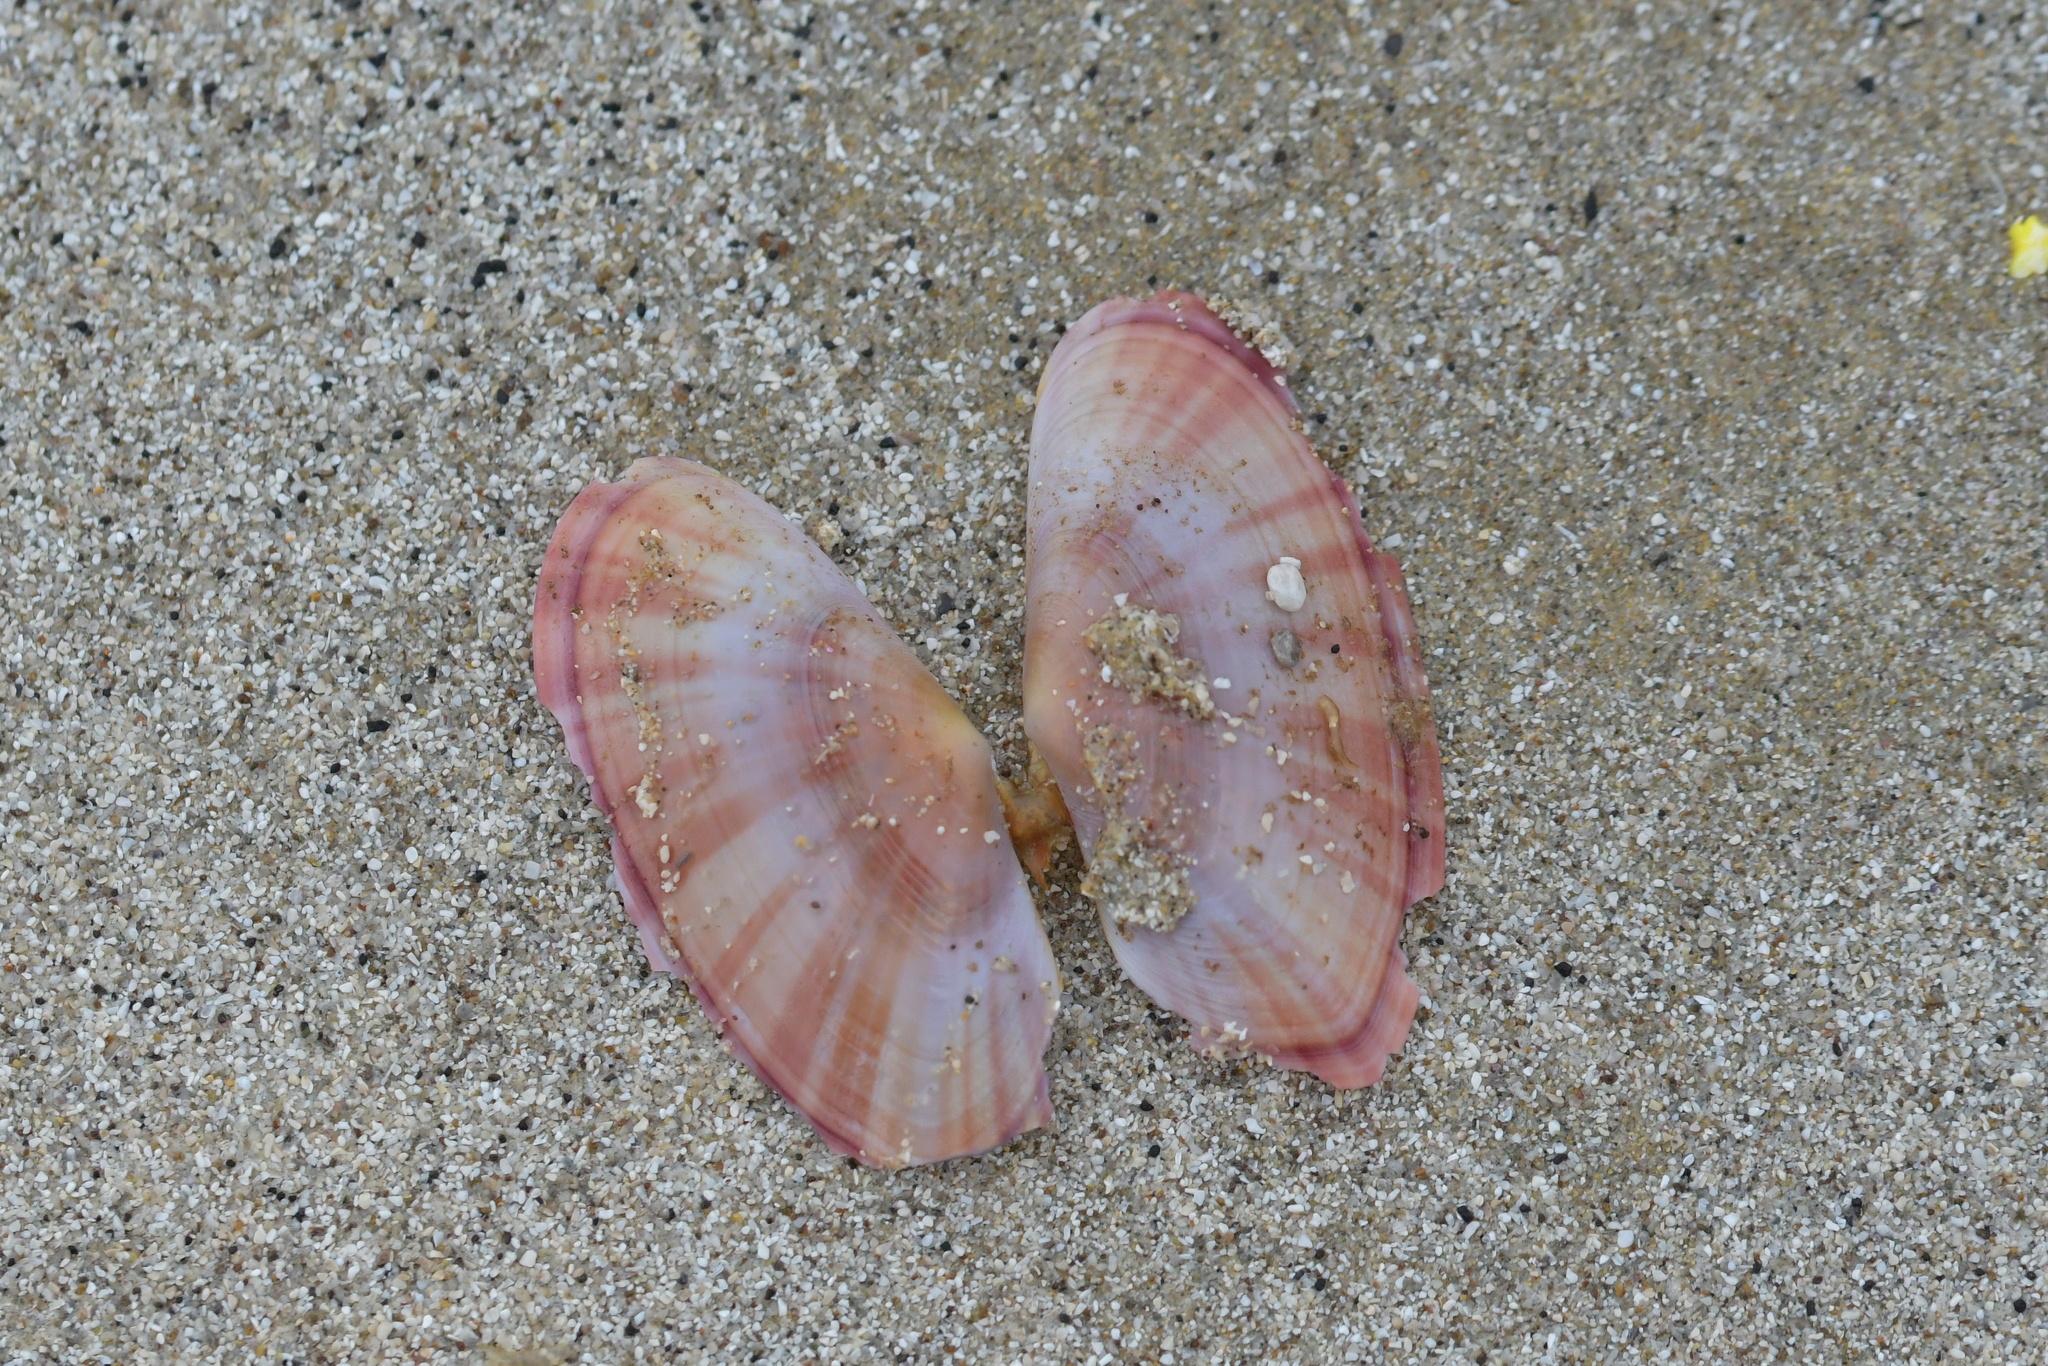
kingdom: Animalia
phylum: Mollusca
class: Bivalvia
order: Cardiida
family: Psammobiidae
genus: Gari
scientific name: Gari convexa
